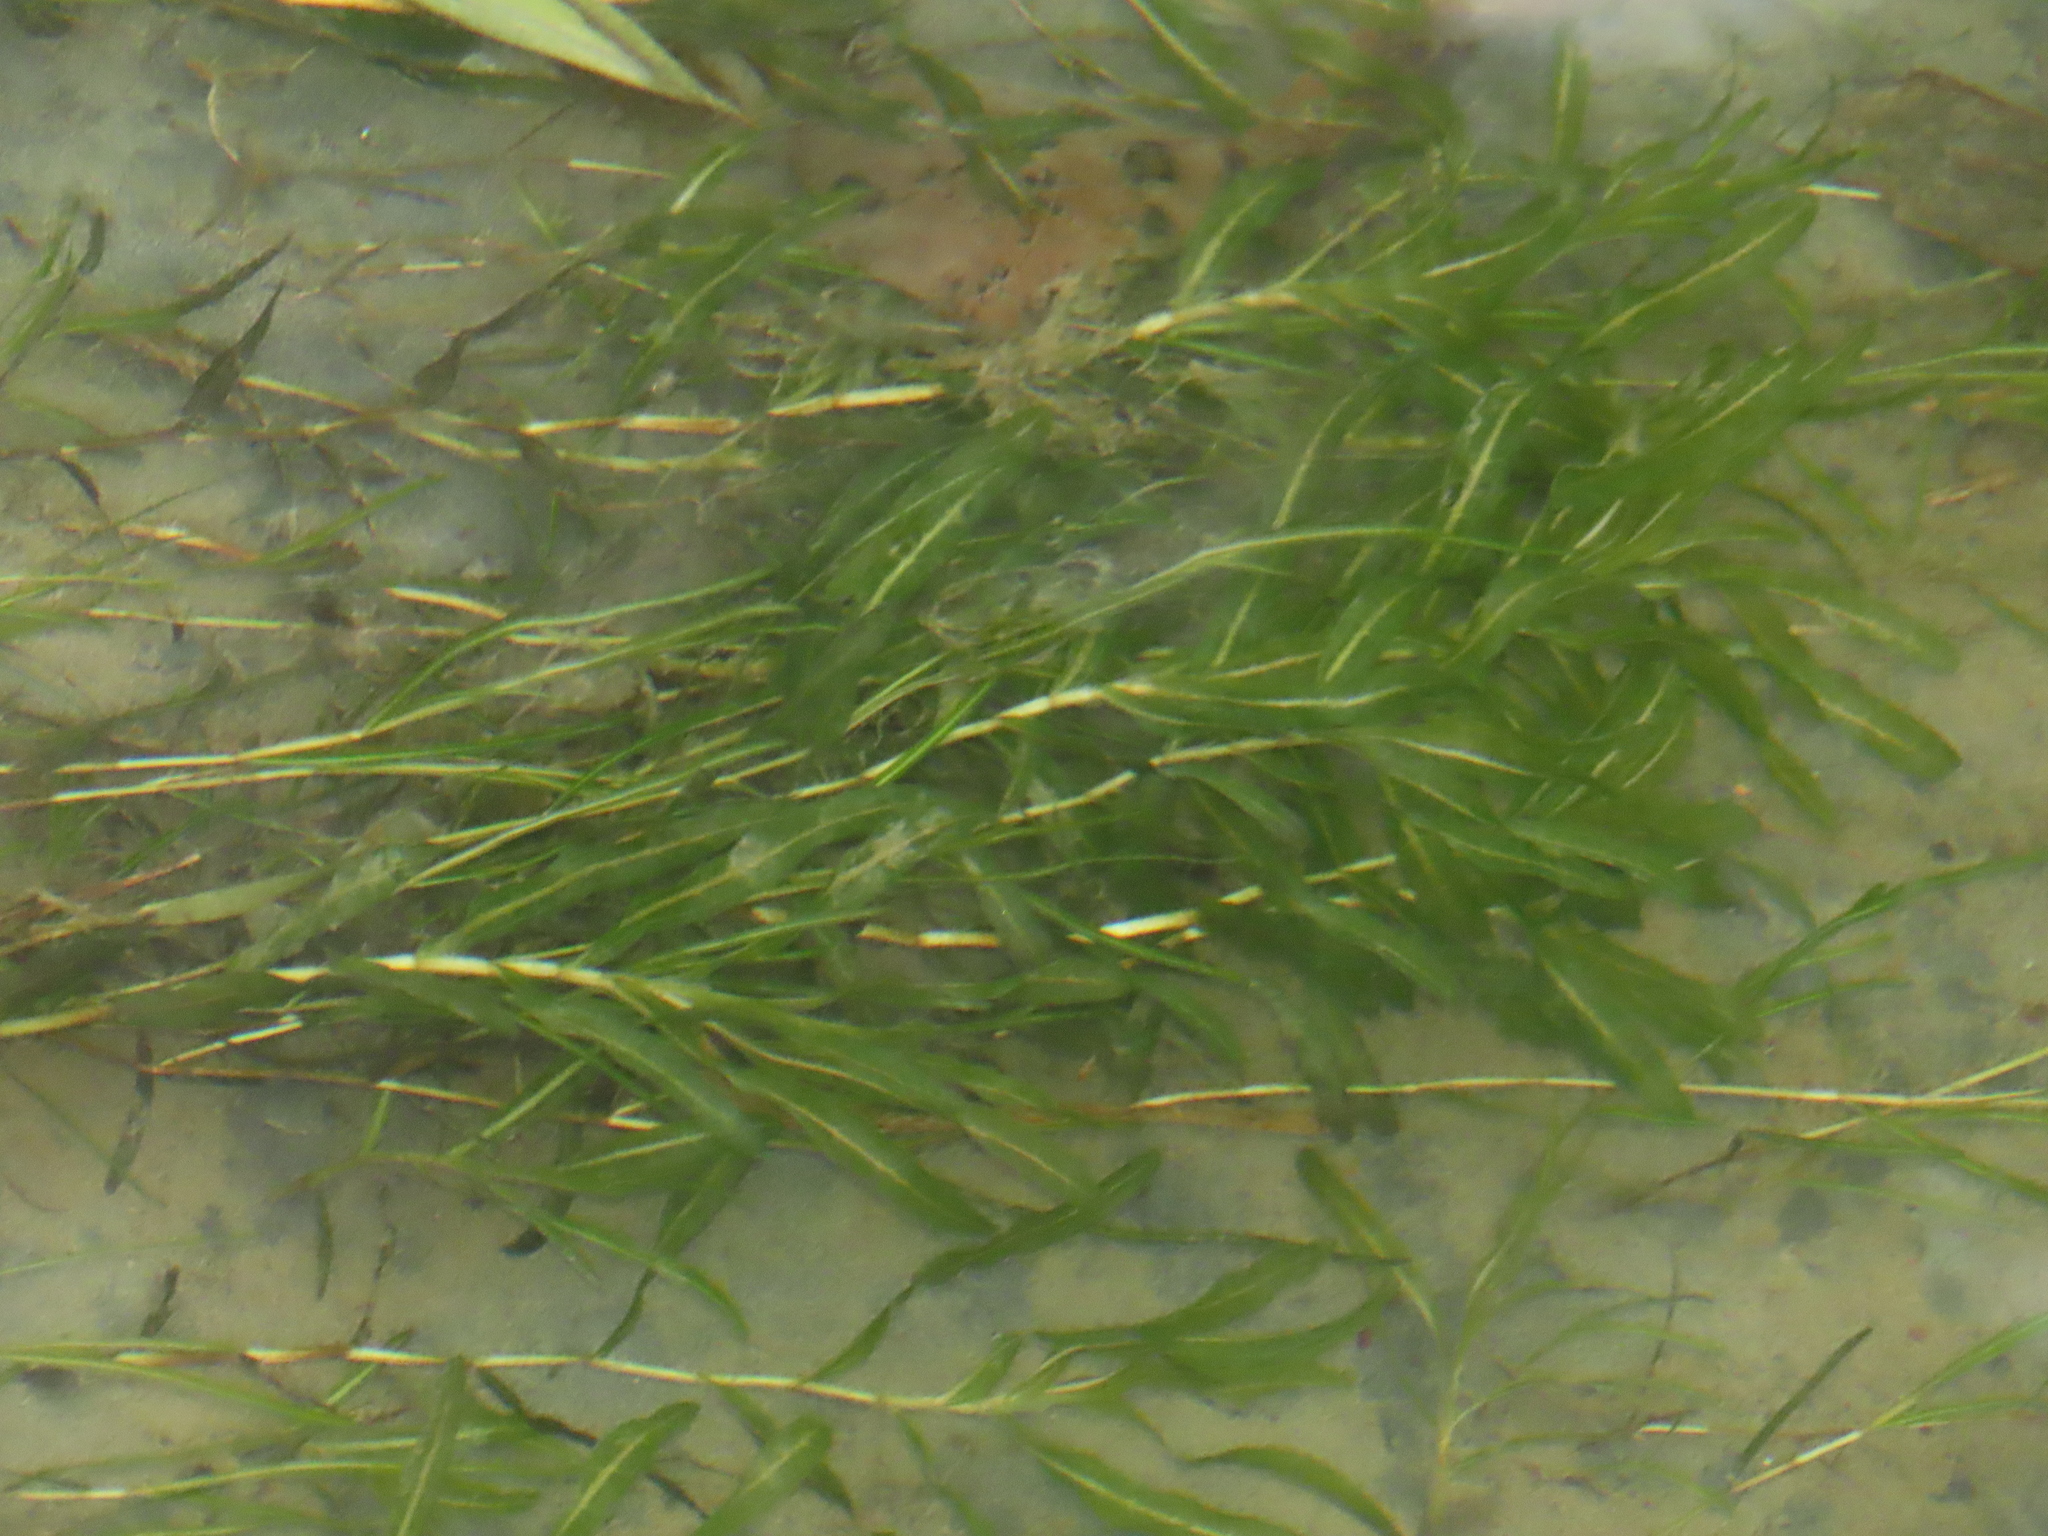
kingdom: Plantae
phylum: Tracheophyta
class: Liliopsida
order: Alismatales
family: Potamogetonaceae
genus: Potamogeton
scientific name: Potamogeton crispus
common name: Curled pondweed
